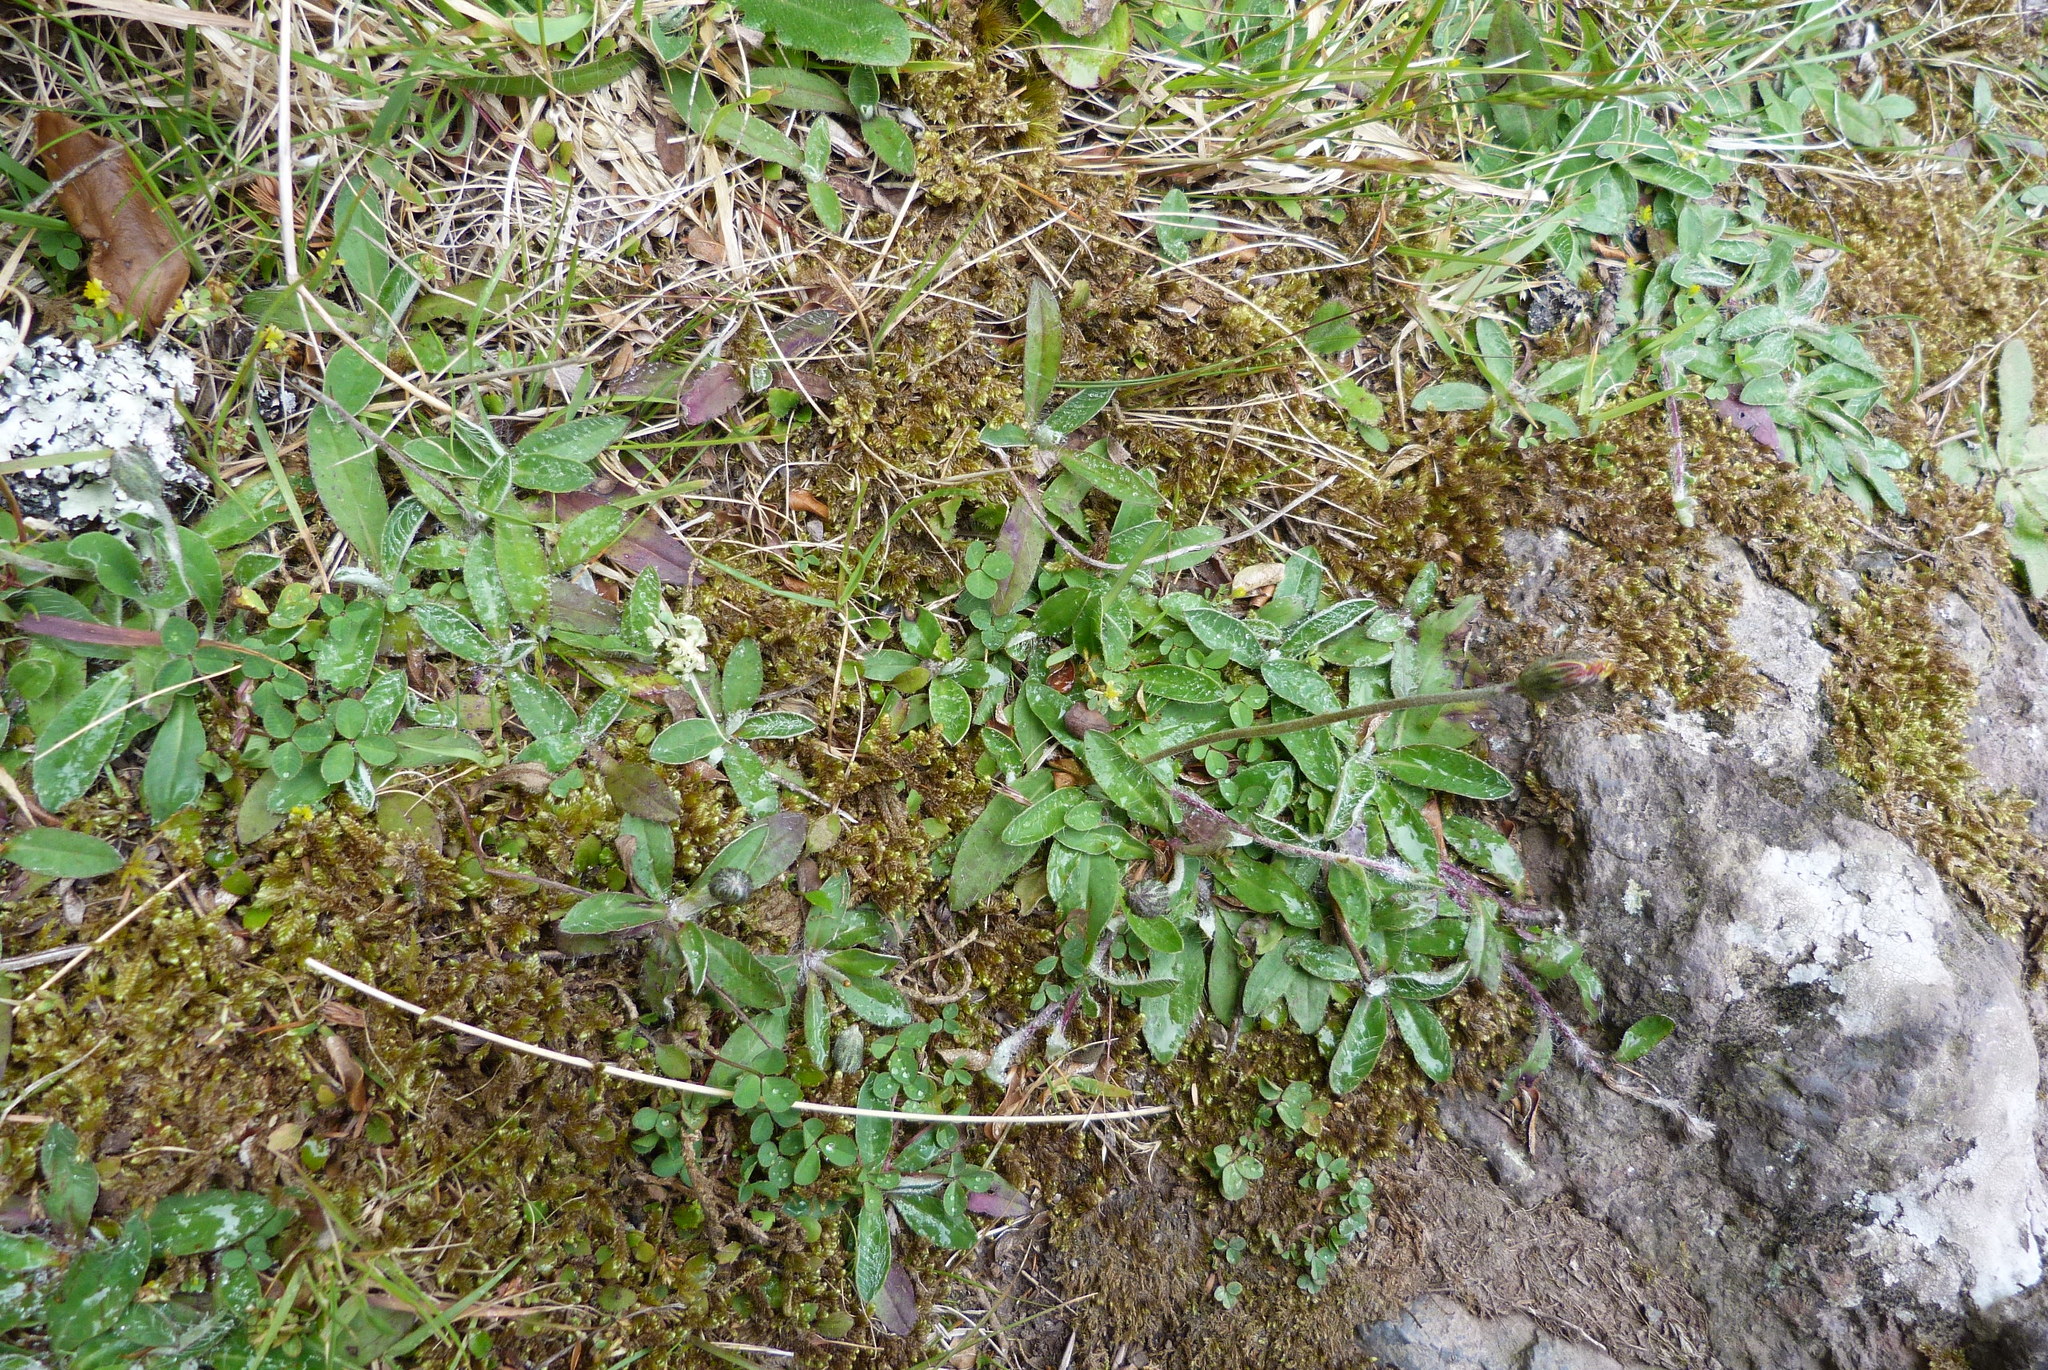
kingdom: Plantae
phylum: Tracheophyta
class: Magnoliopsida
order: Asterales
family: Asteraceae
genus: Pilosella
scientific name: Pilosella officinarum
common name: Mouse-ear hawkweed
